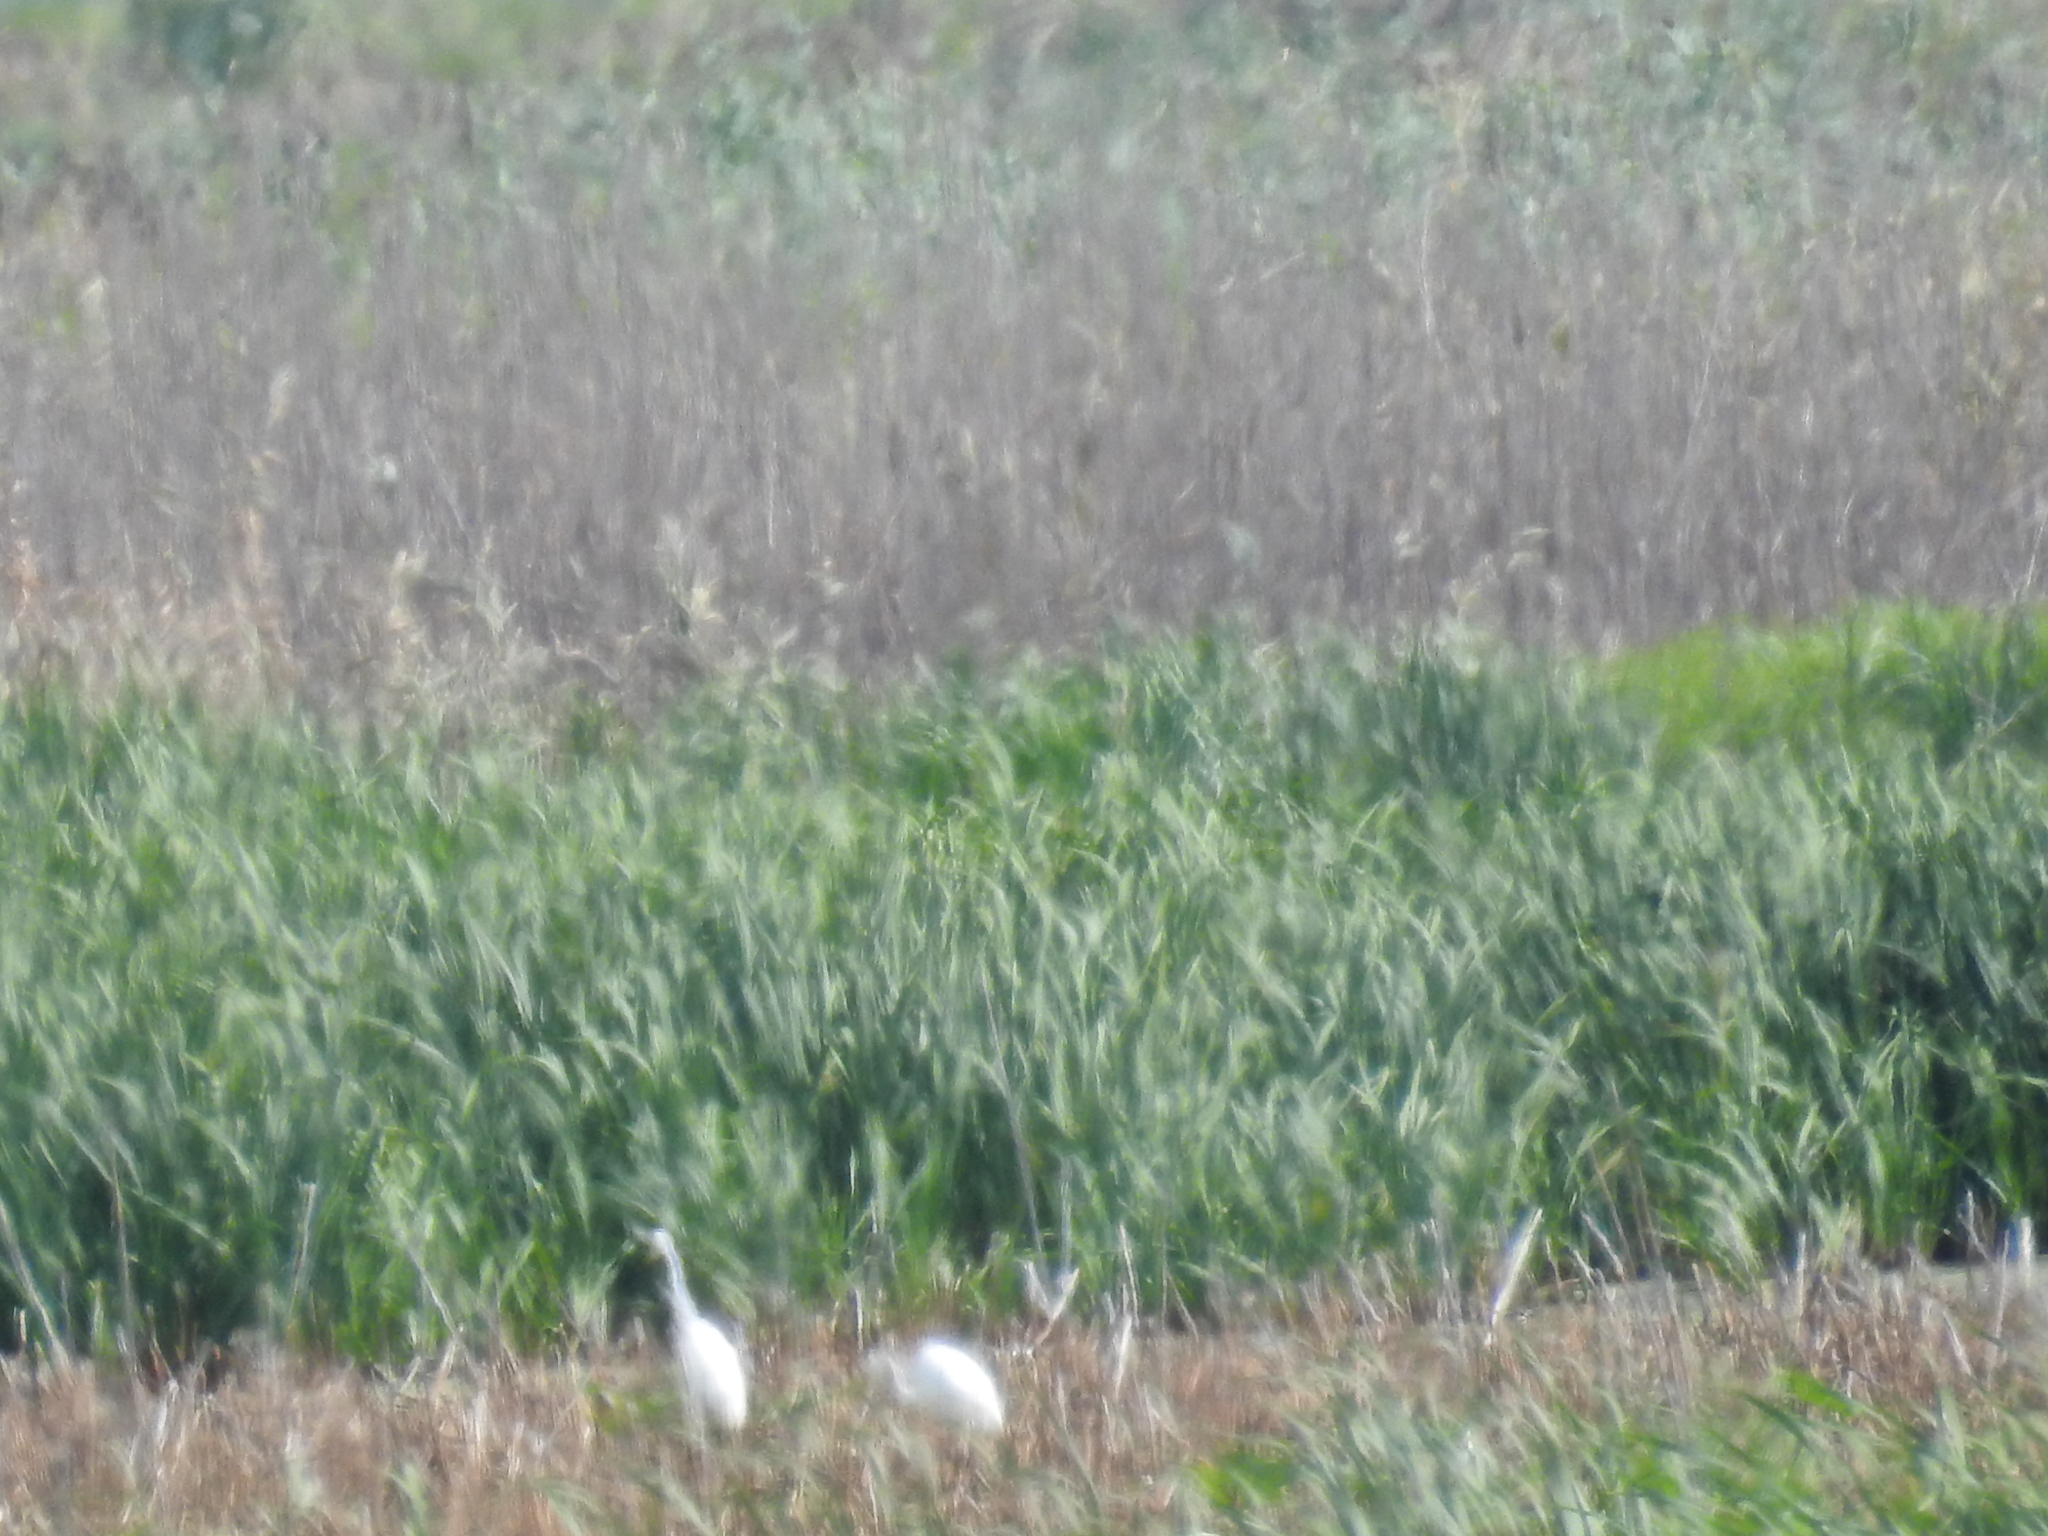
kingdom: Animalia
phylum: Chordata
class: Aves
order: Pelecaniformes
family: Ardeidae
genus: Ardea
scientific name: Ardea alba
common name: Great egret
